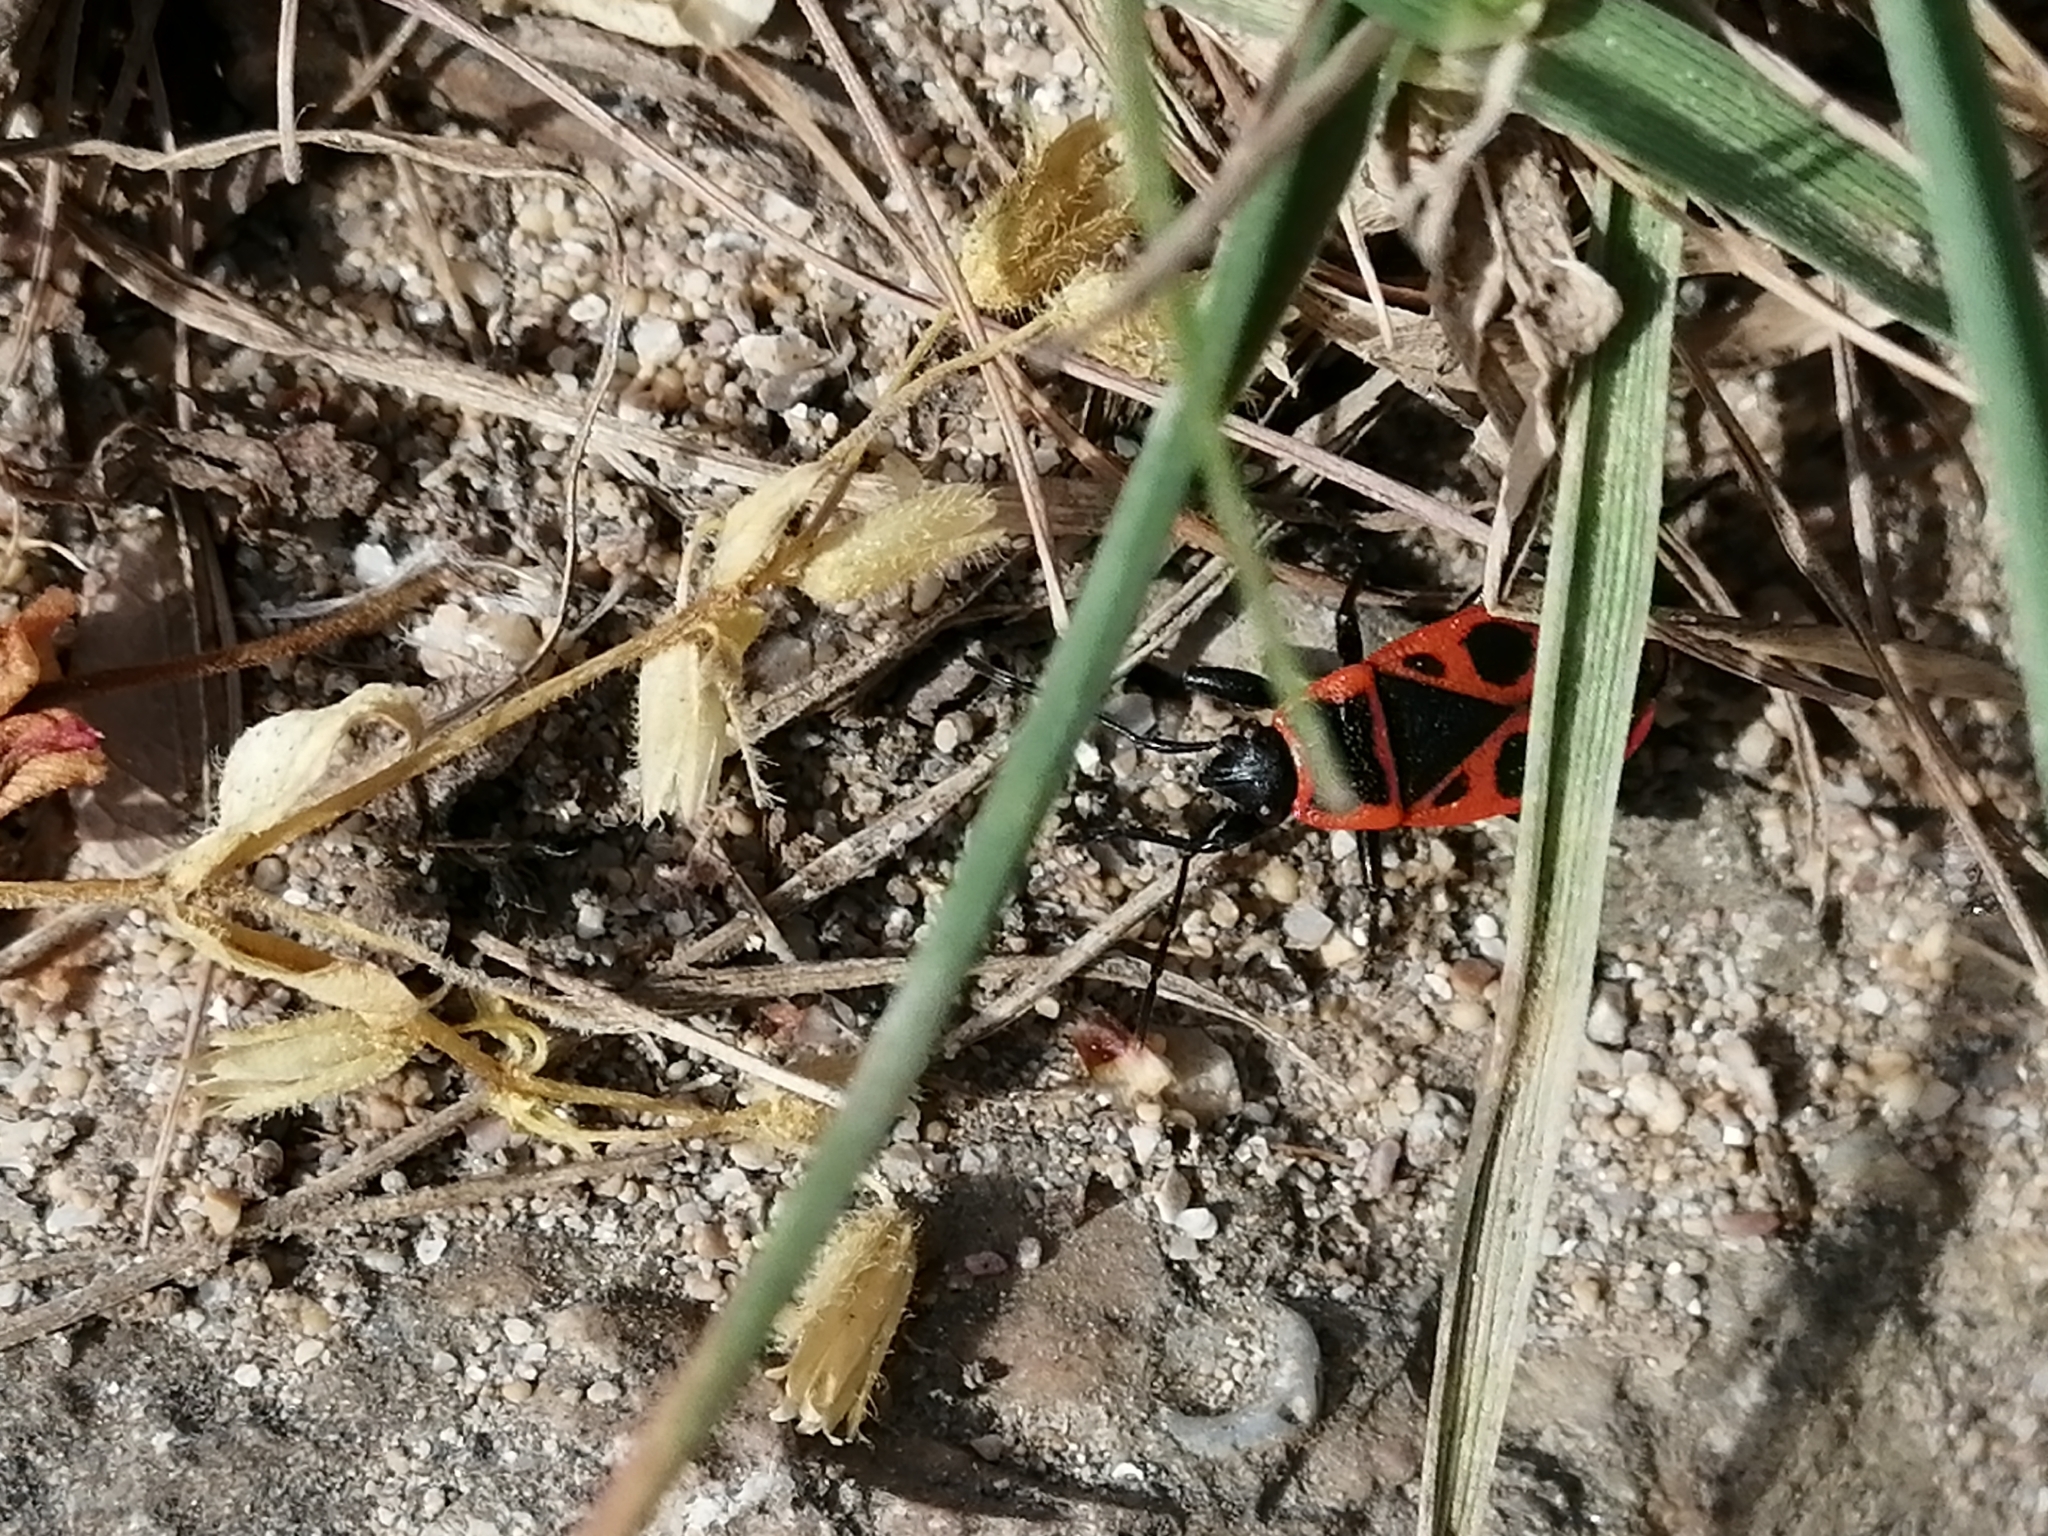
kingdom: Animalia
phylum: Arthropoda
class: Insecta
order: Hemiptera
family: Pyrrhocoridae
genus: Pyrrhocoris
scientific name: Pyrrhocoris apterus
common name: Firebug
